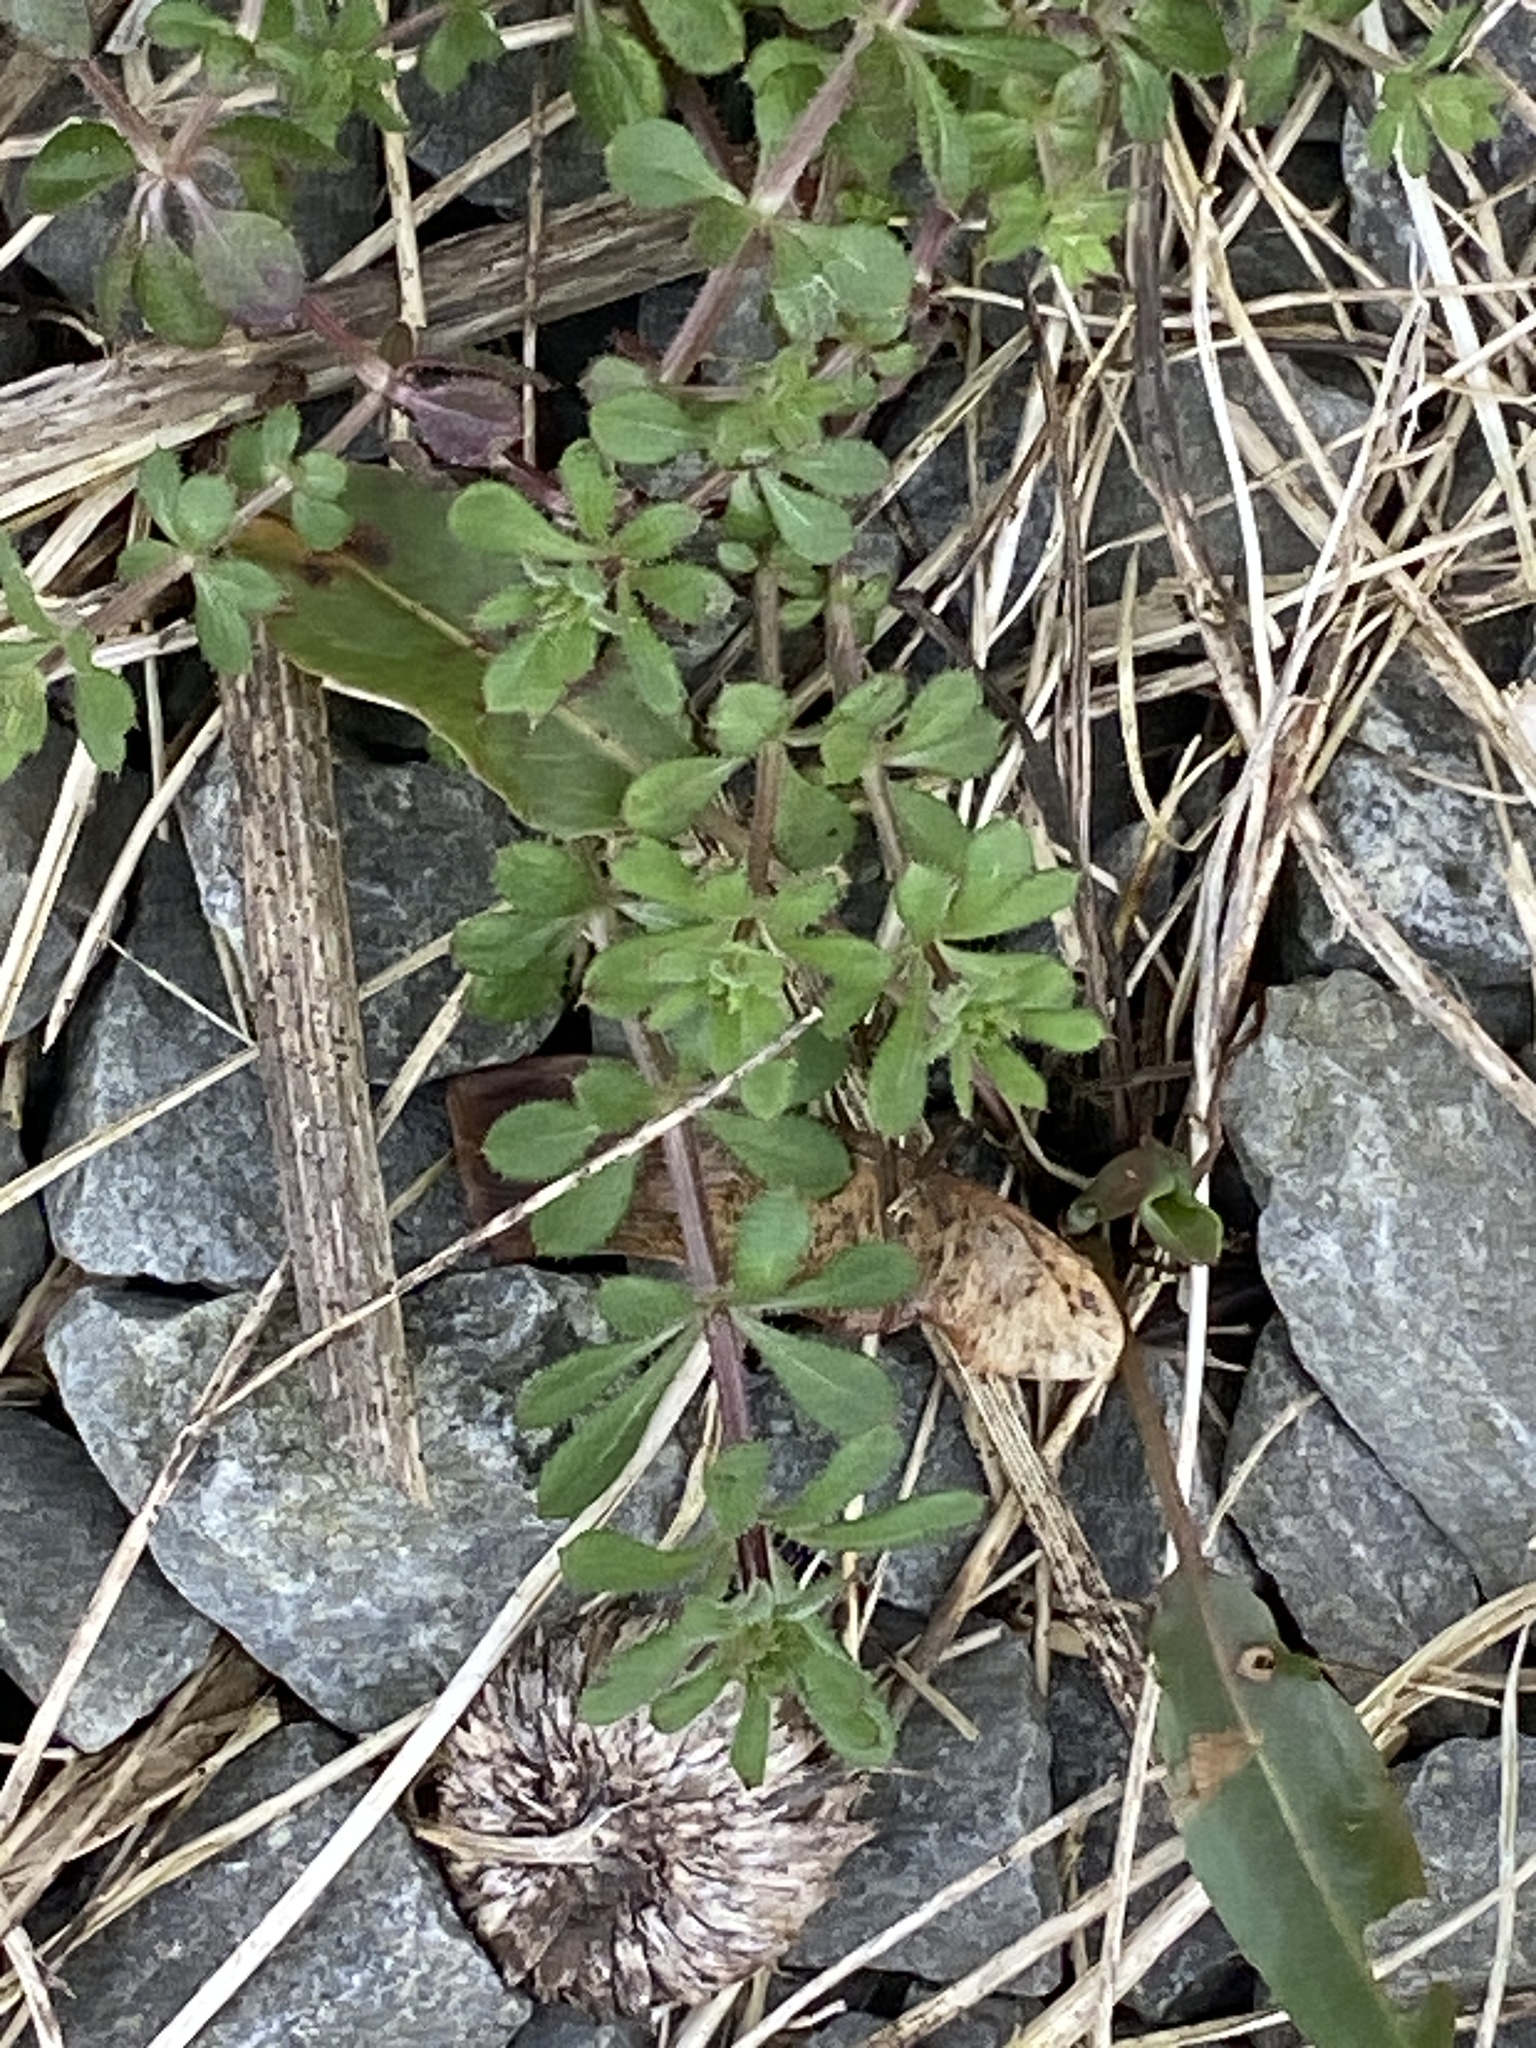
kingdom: Plantae
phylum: Tracheophyta
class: Magnoliopsida
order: Gentianales
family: Rubiaceae
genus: Galium
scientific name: Galium aparine
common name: Cleavers
